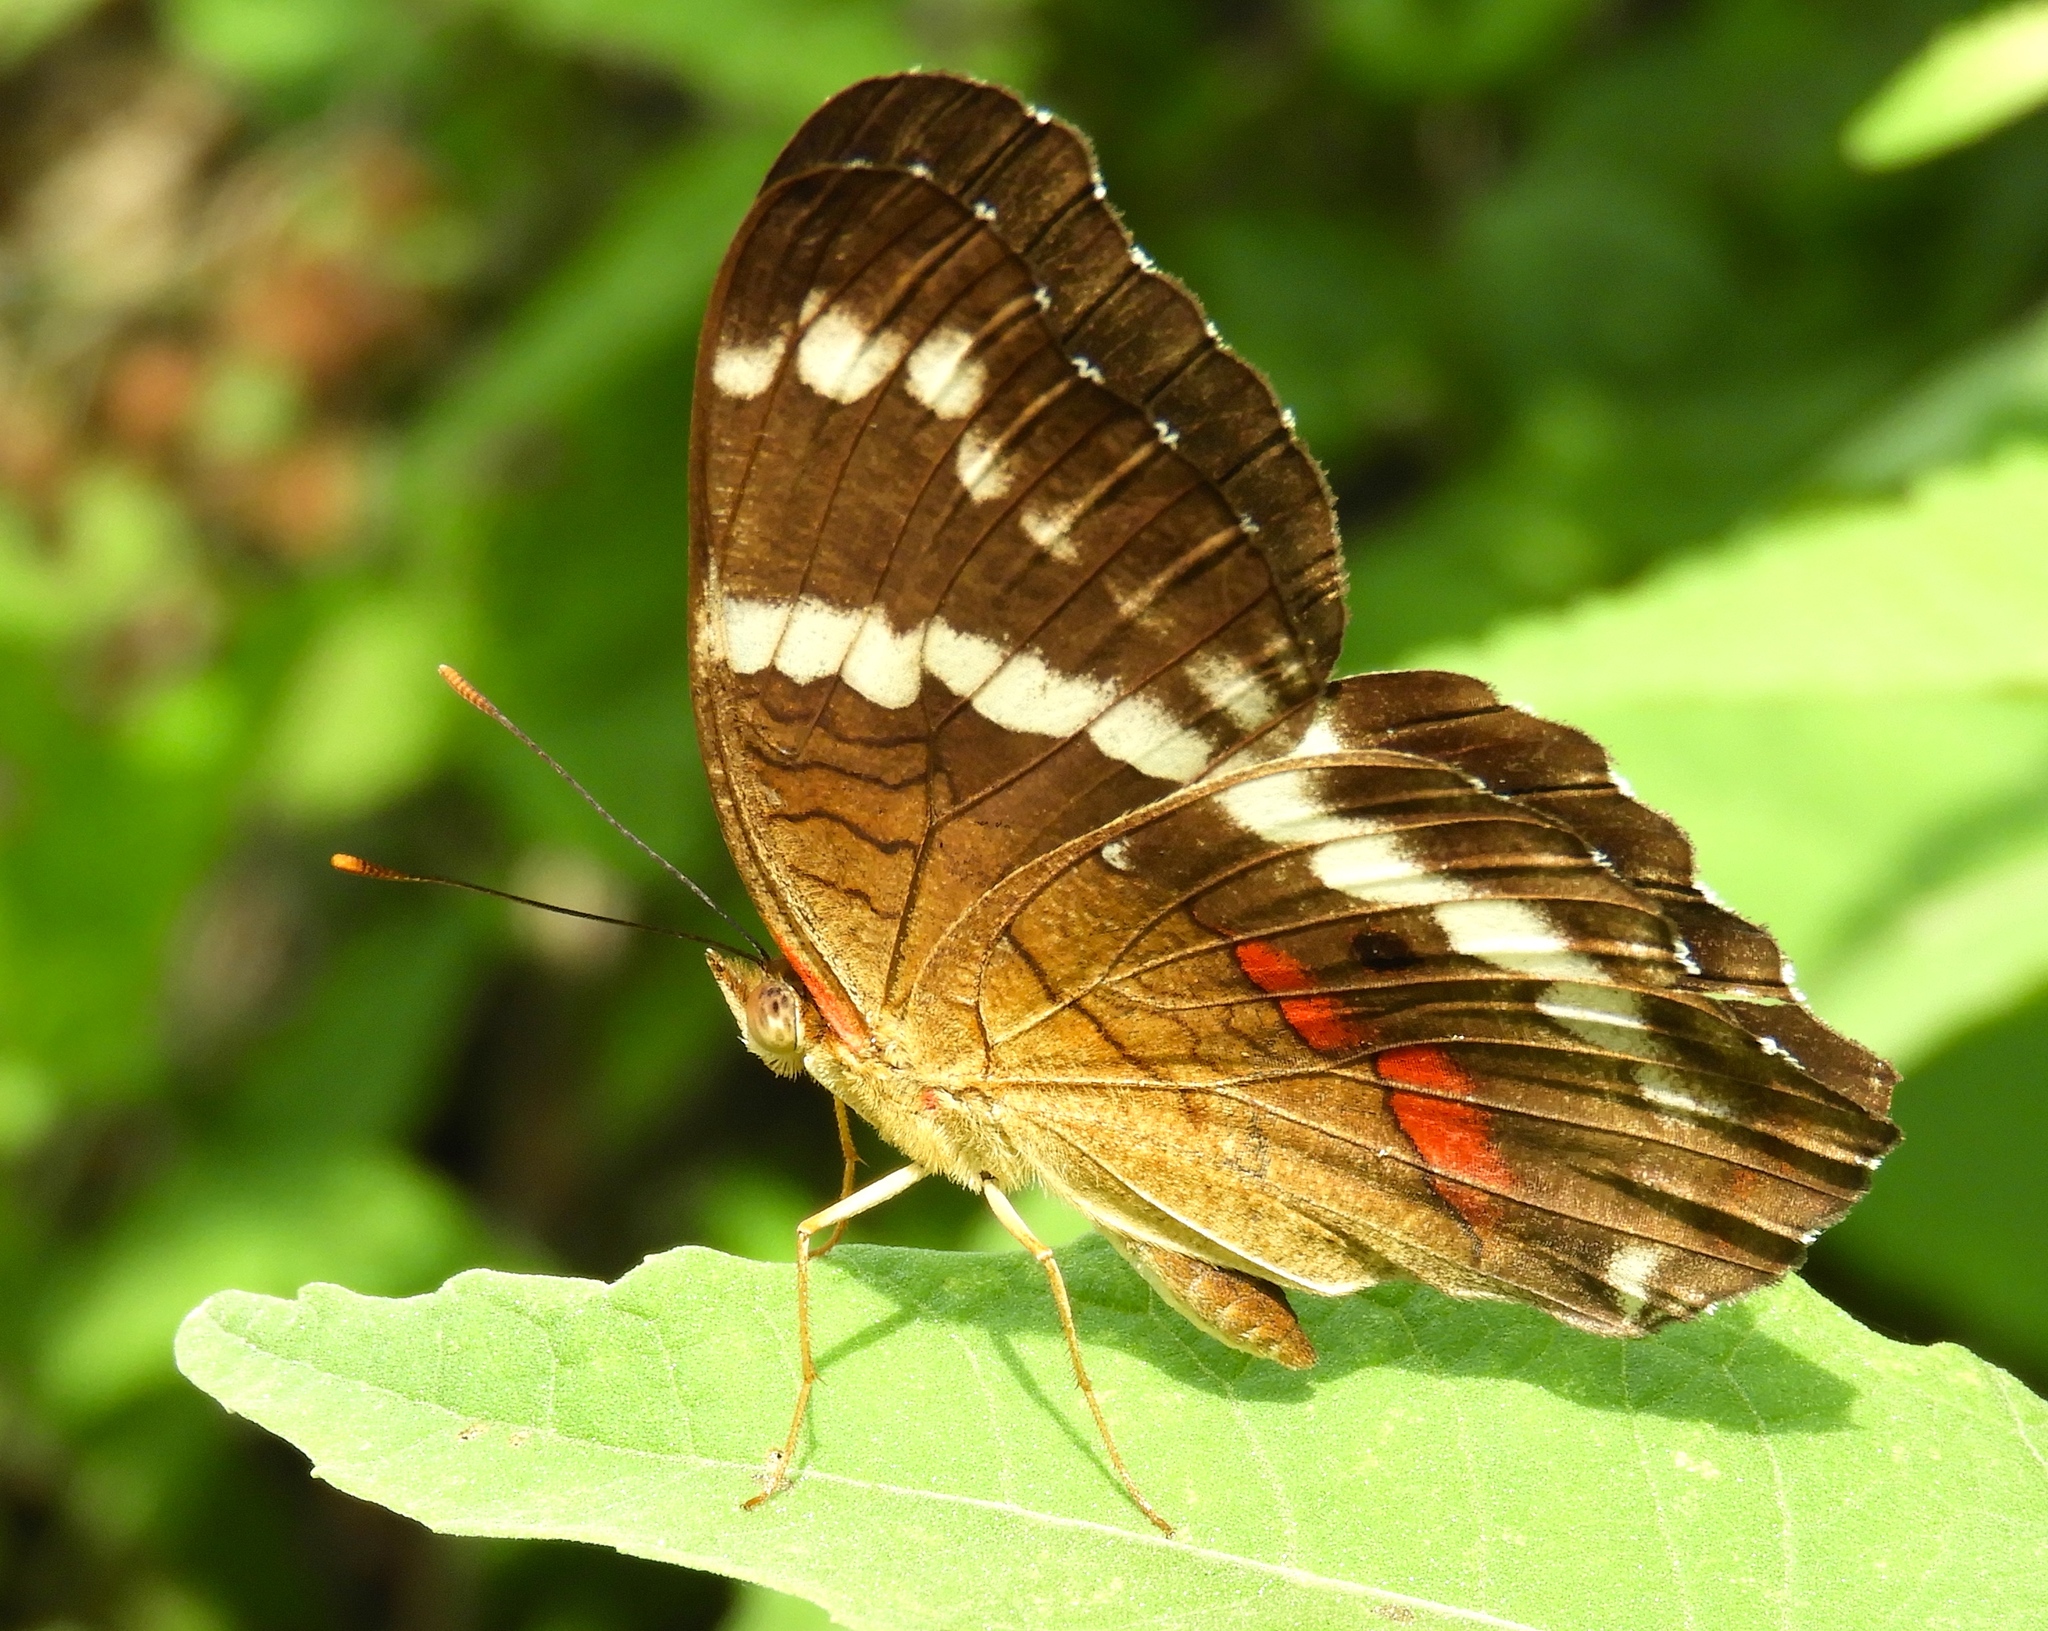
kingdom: Animalia
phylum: Arthropoda
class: Insecta
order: Lepidoptera
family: Nymphalidae
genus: Anartia
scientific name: Anartia fatima
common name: Banded peacock
